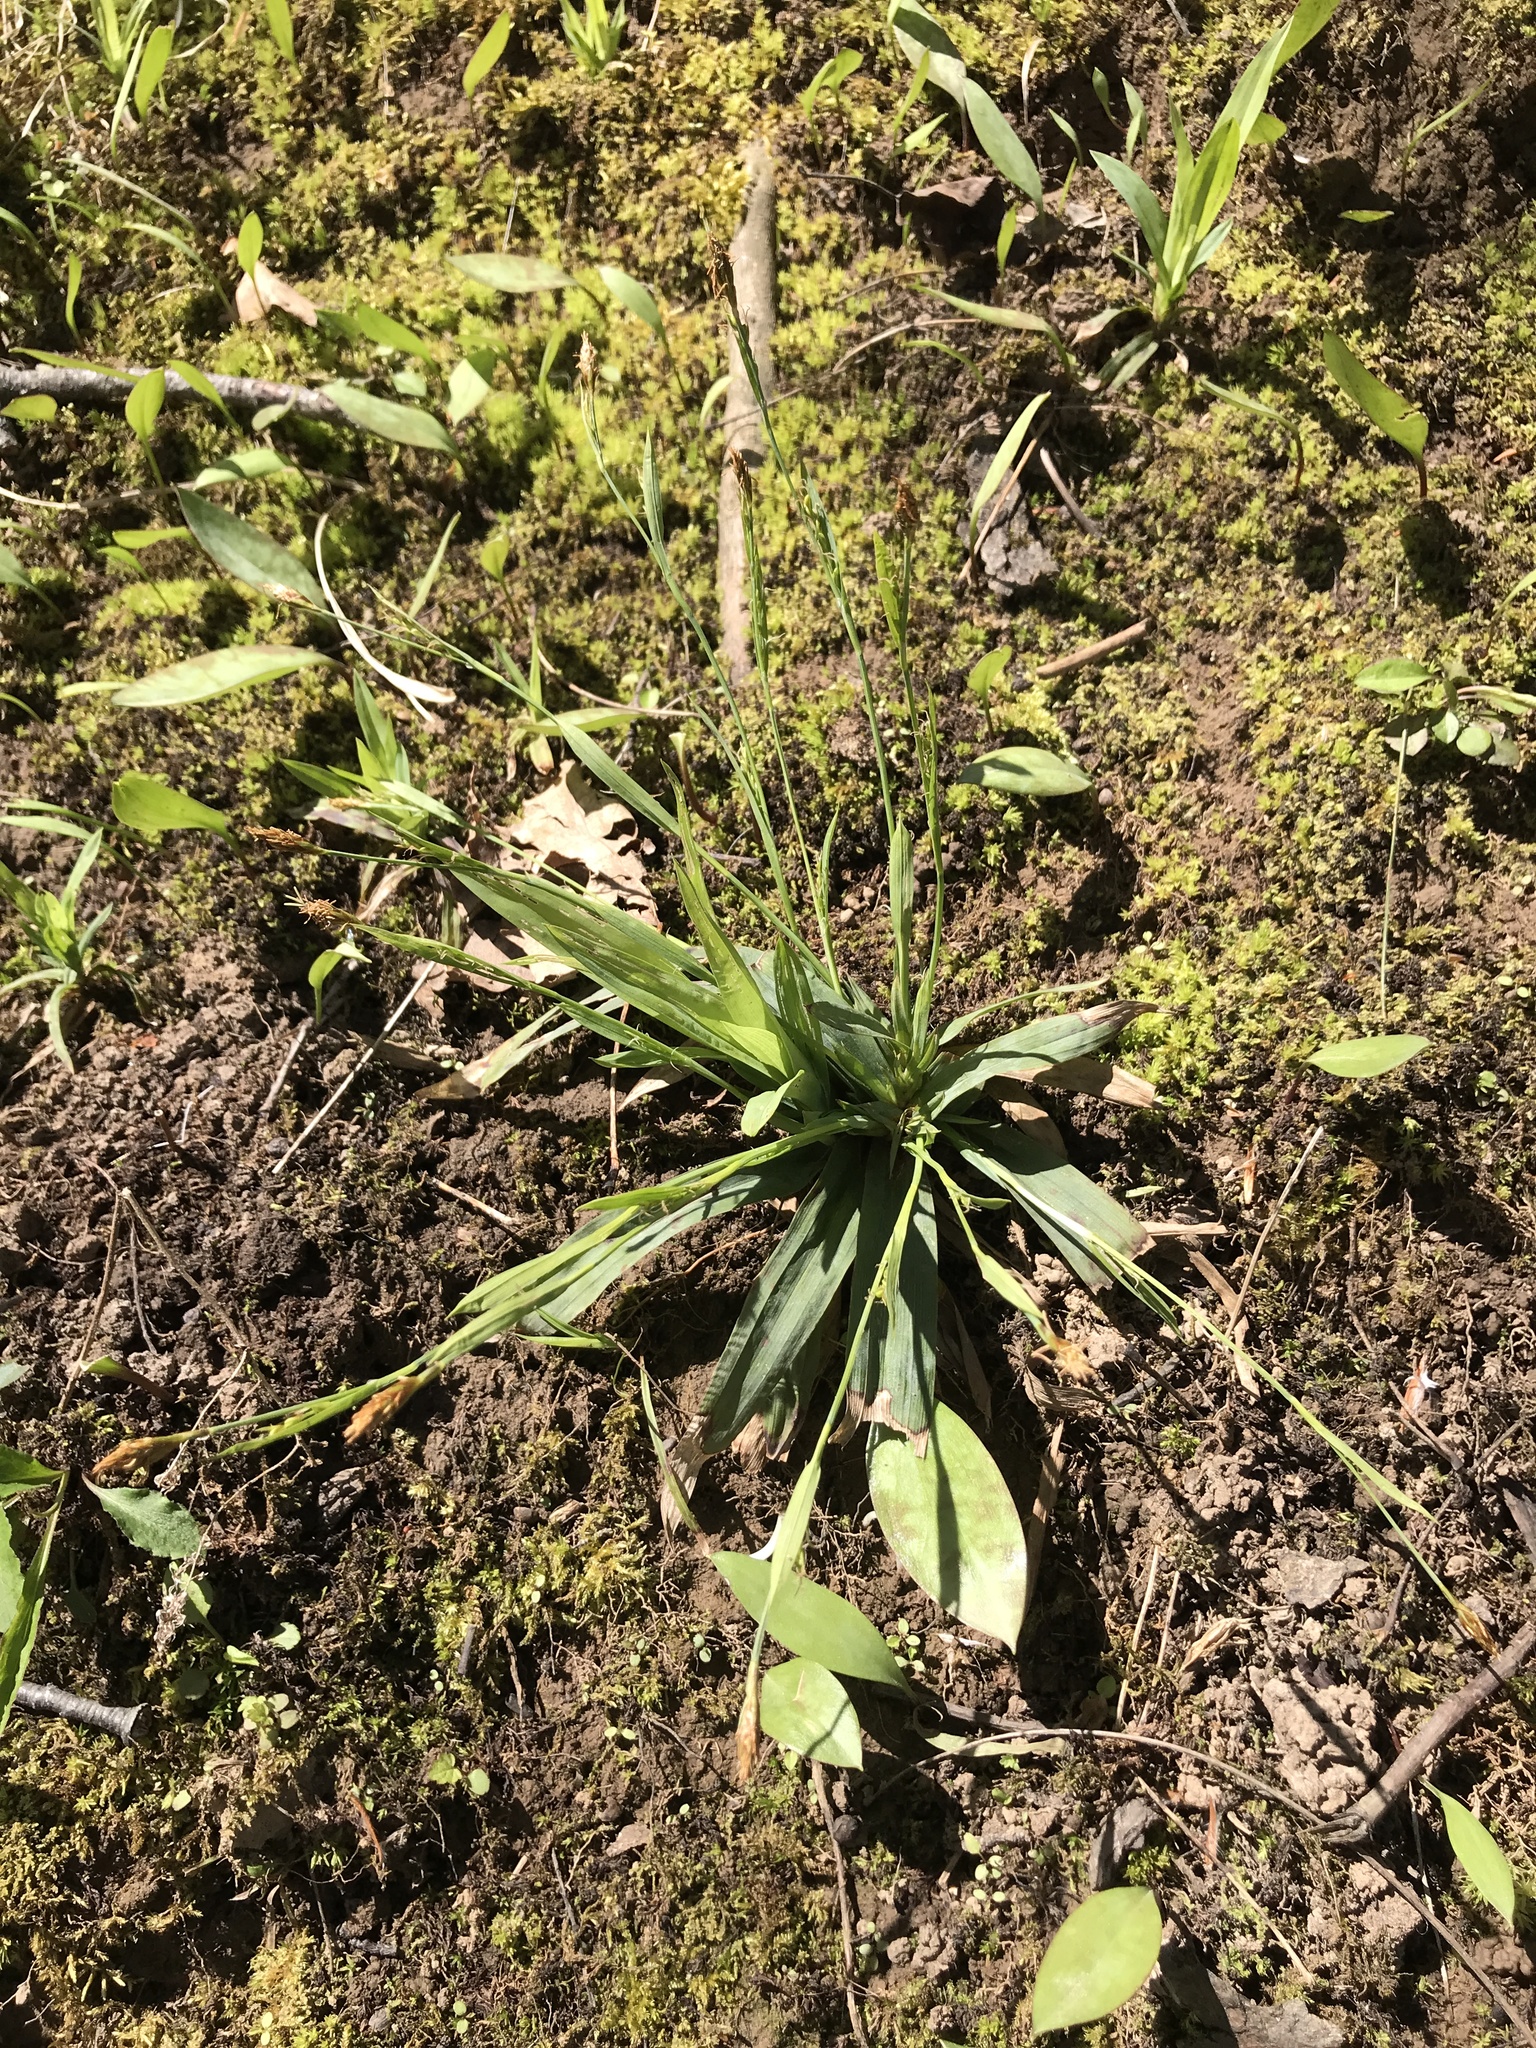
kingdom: Plantae
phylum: Tracheophyta
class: Liliopsida
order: Poales
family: Cyperaceae
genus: Carex
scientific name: Carex platyphylla
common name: Broad-leaved sedge
